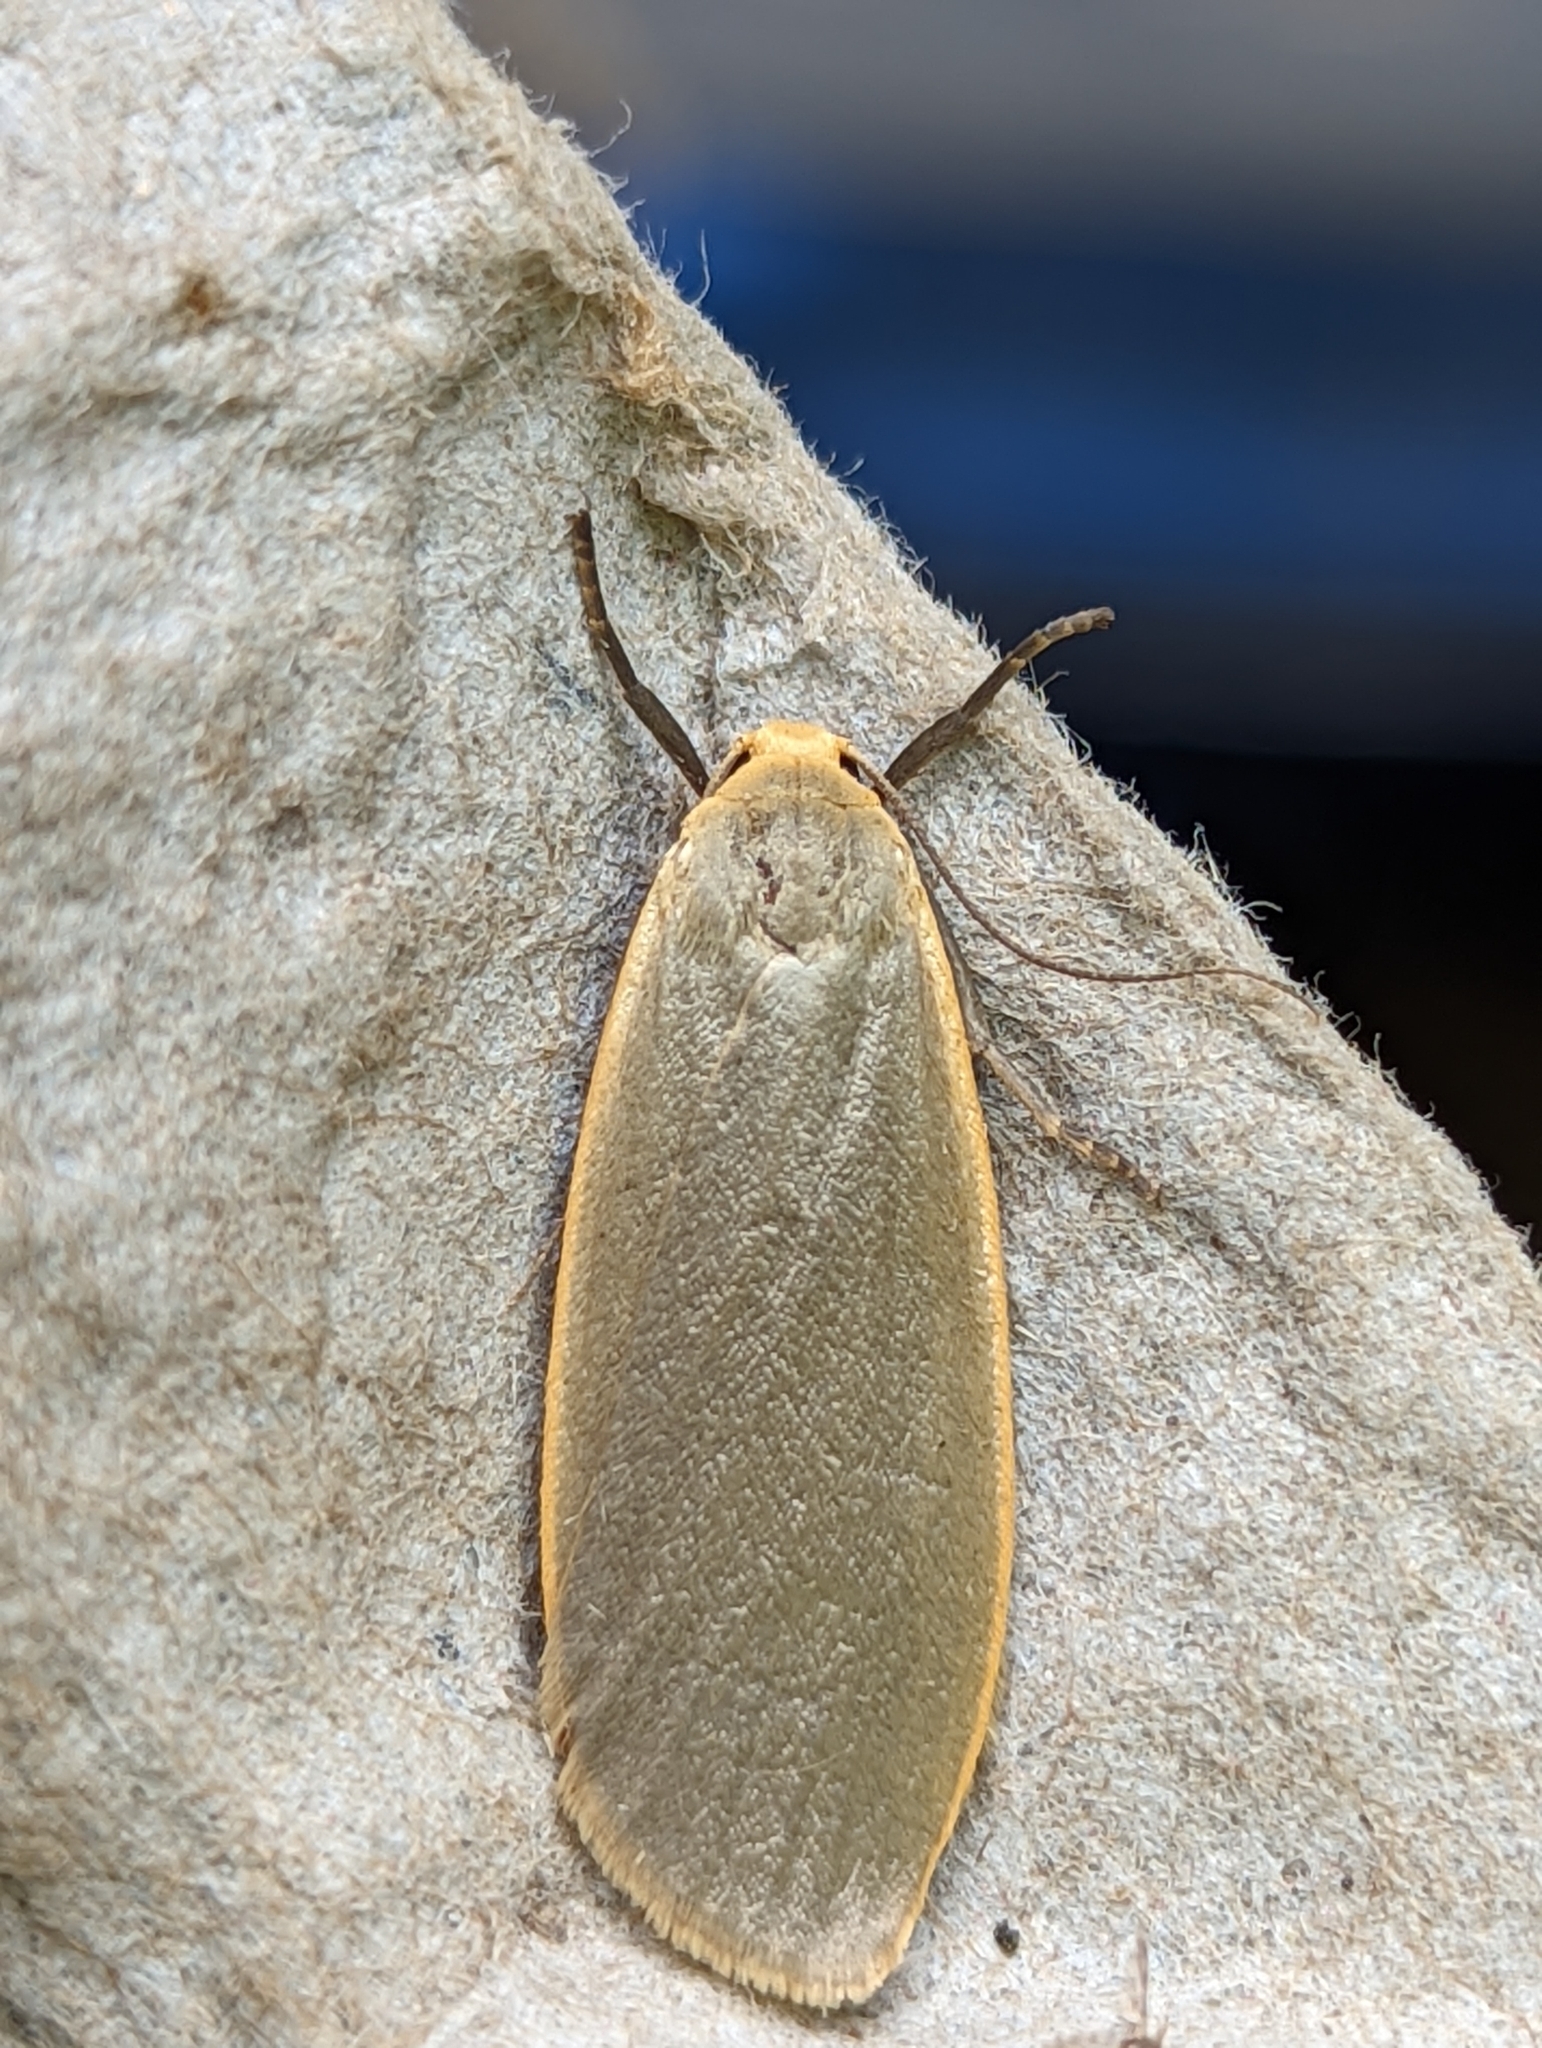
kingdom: Animalia
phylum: Arthropoda
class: Insecta
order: Lepidoptera
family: Erebidae
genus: Collita
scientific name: Collita griseola
